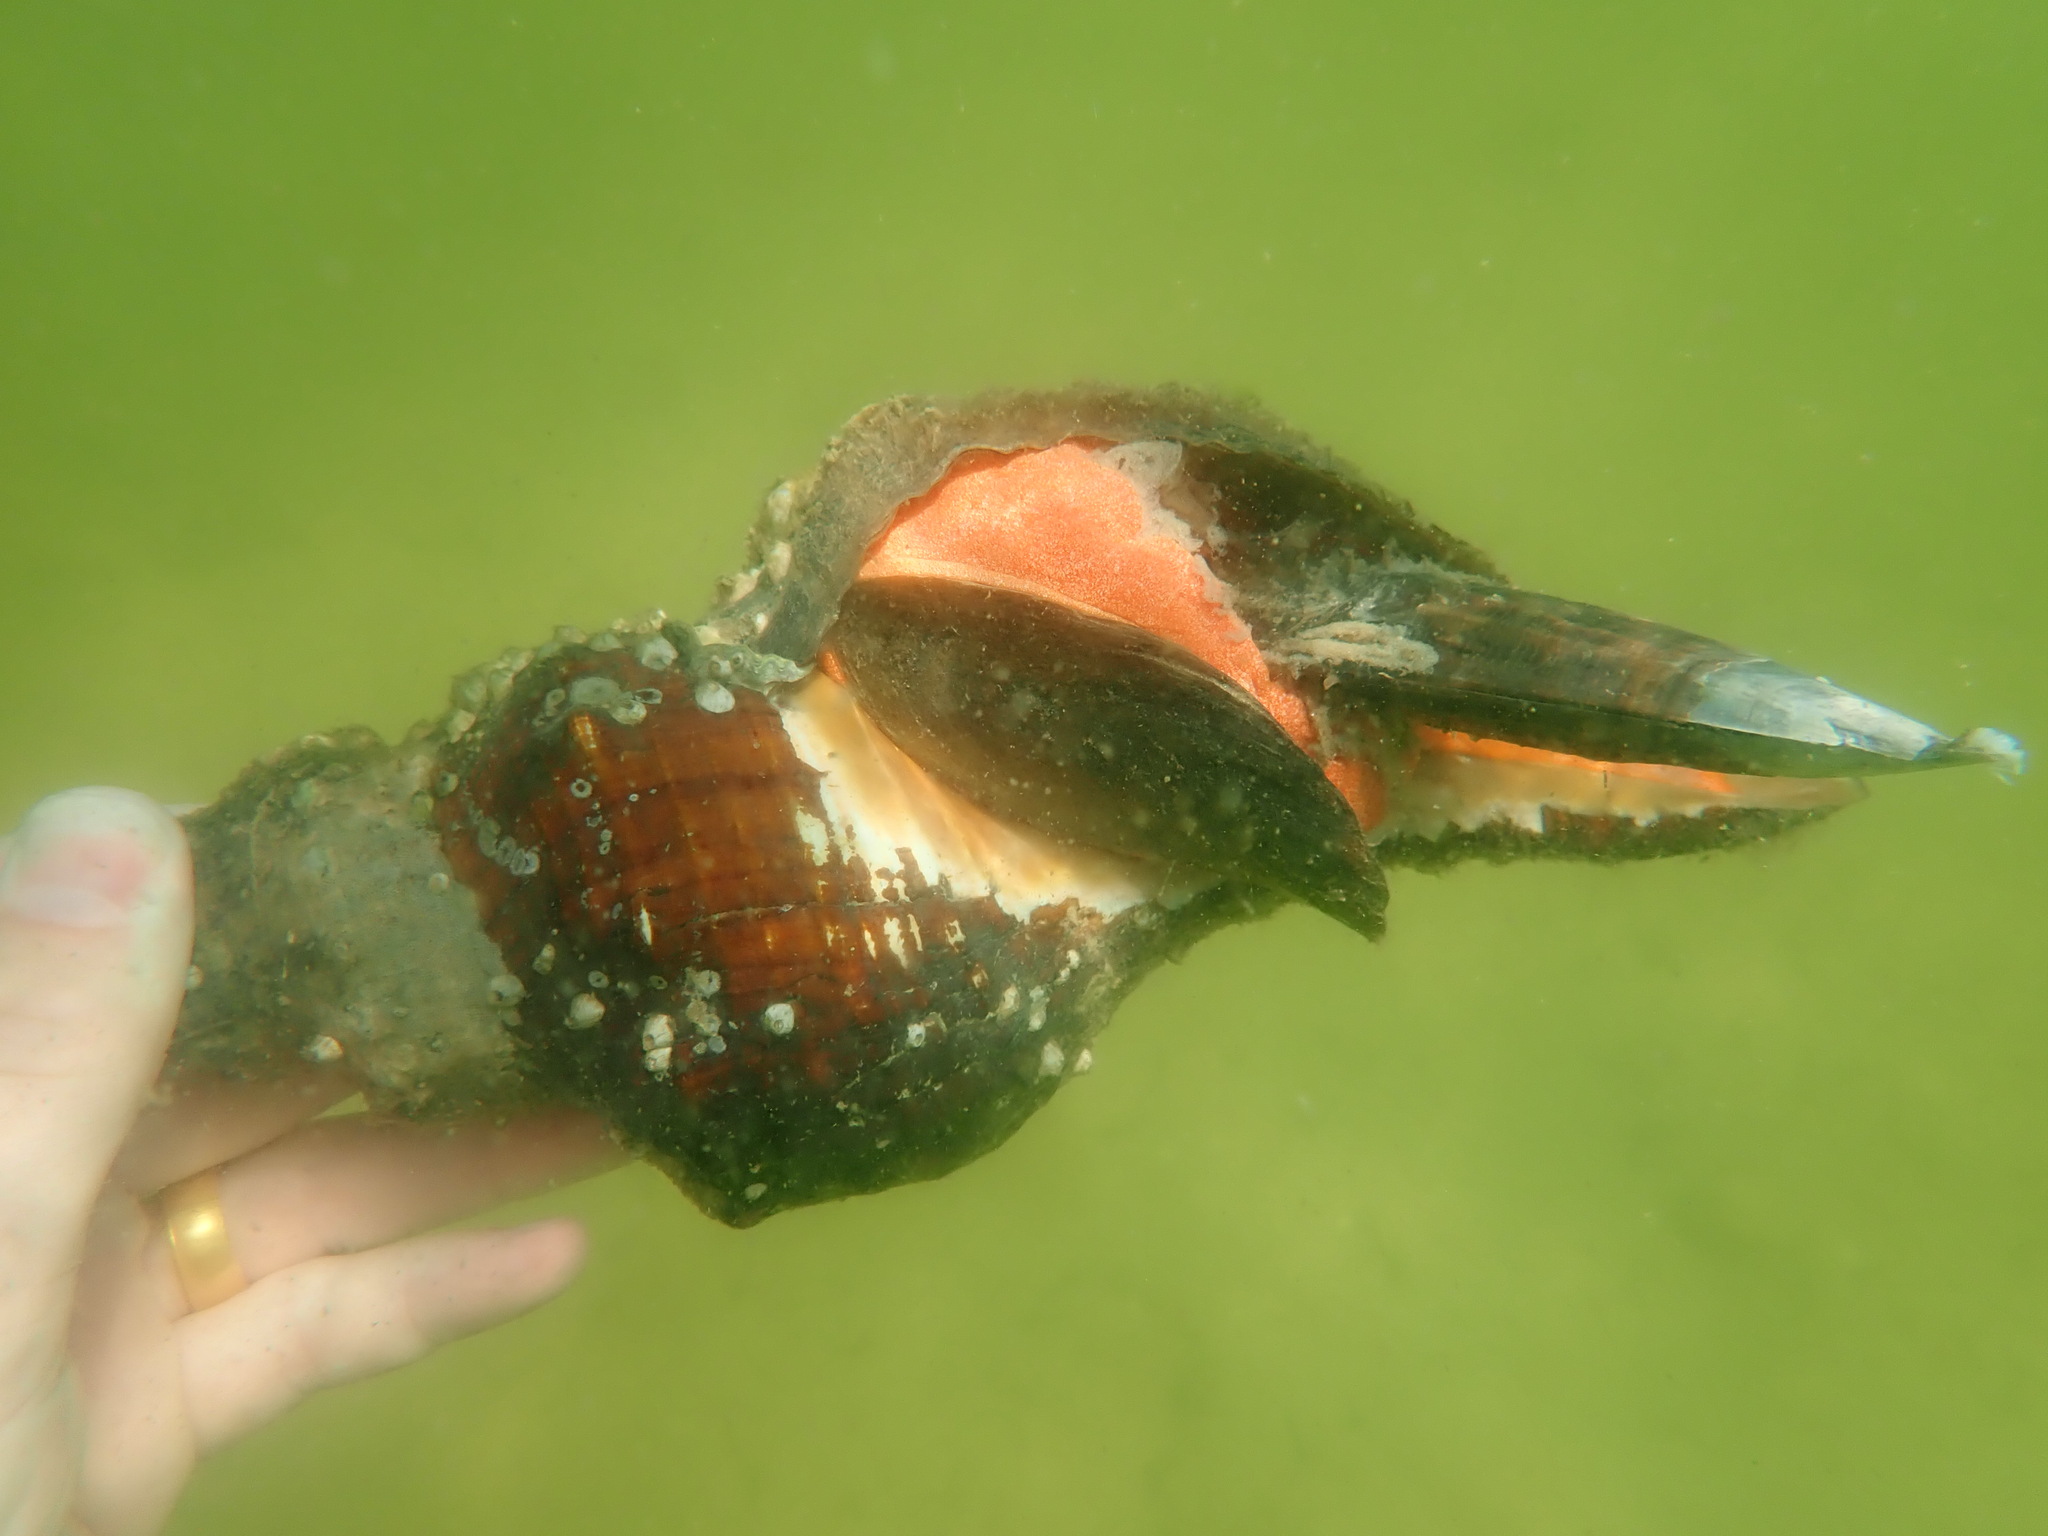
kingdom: Animalia
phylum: Mollusca
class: Gastropoda
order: Neogastropoda
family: Fasciolariidae
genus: Triplofusus
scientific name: Triplofusus giganteus
